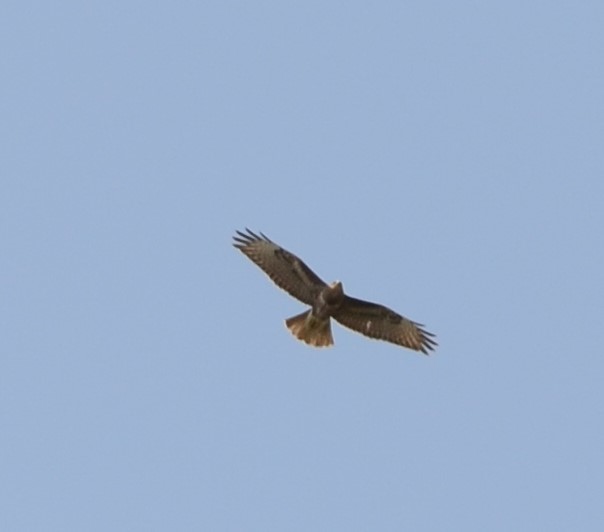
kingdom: Animalia
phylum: Chordata
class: Aves
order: Accipitriformes
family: Accipitridae
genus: Buteo
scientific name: Buteo buteo
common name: Common buzzard
